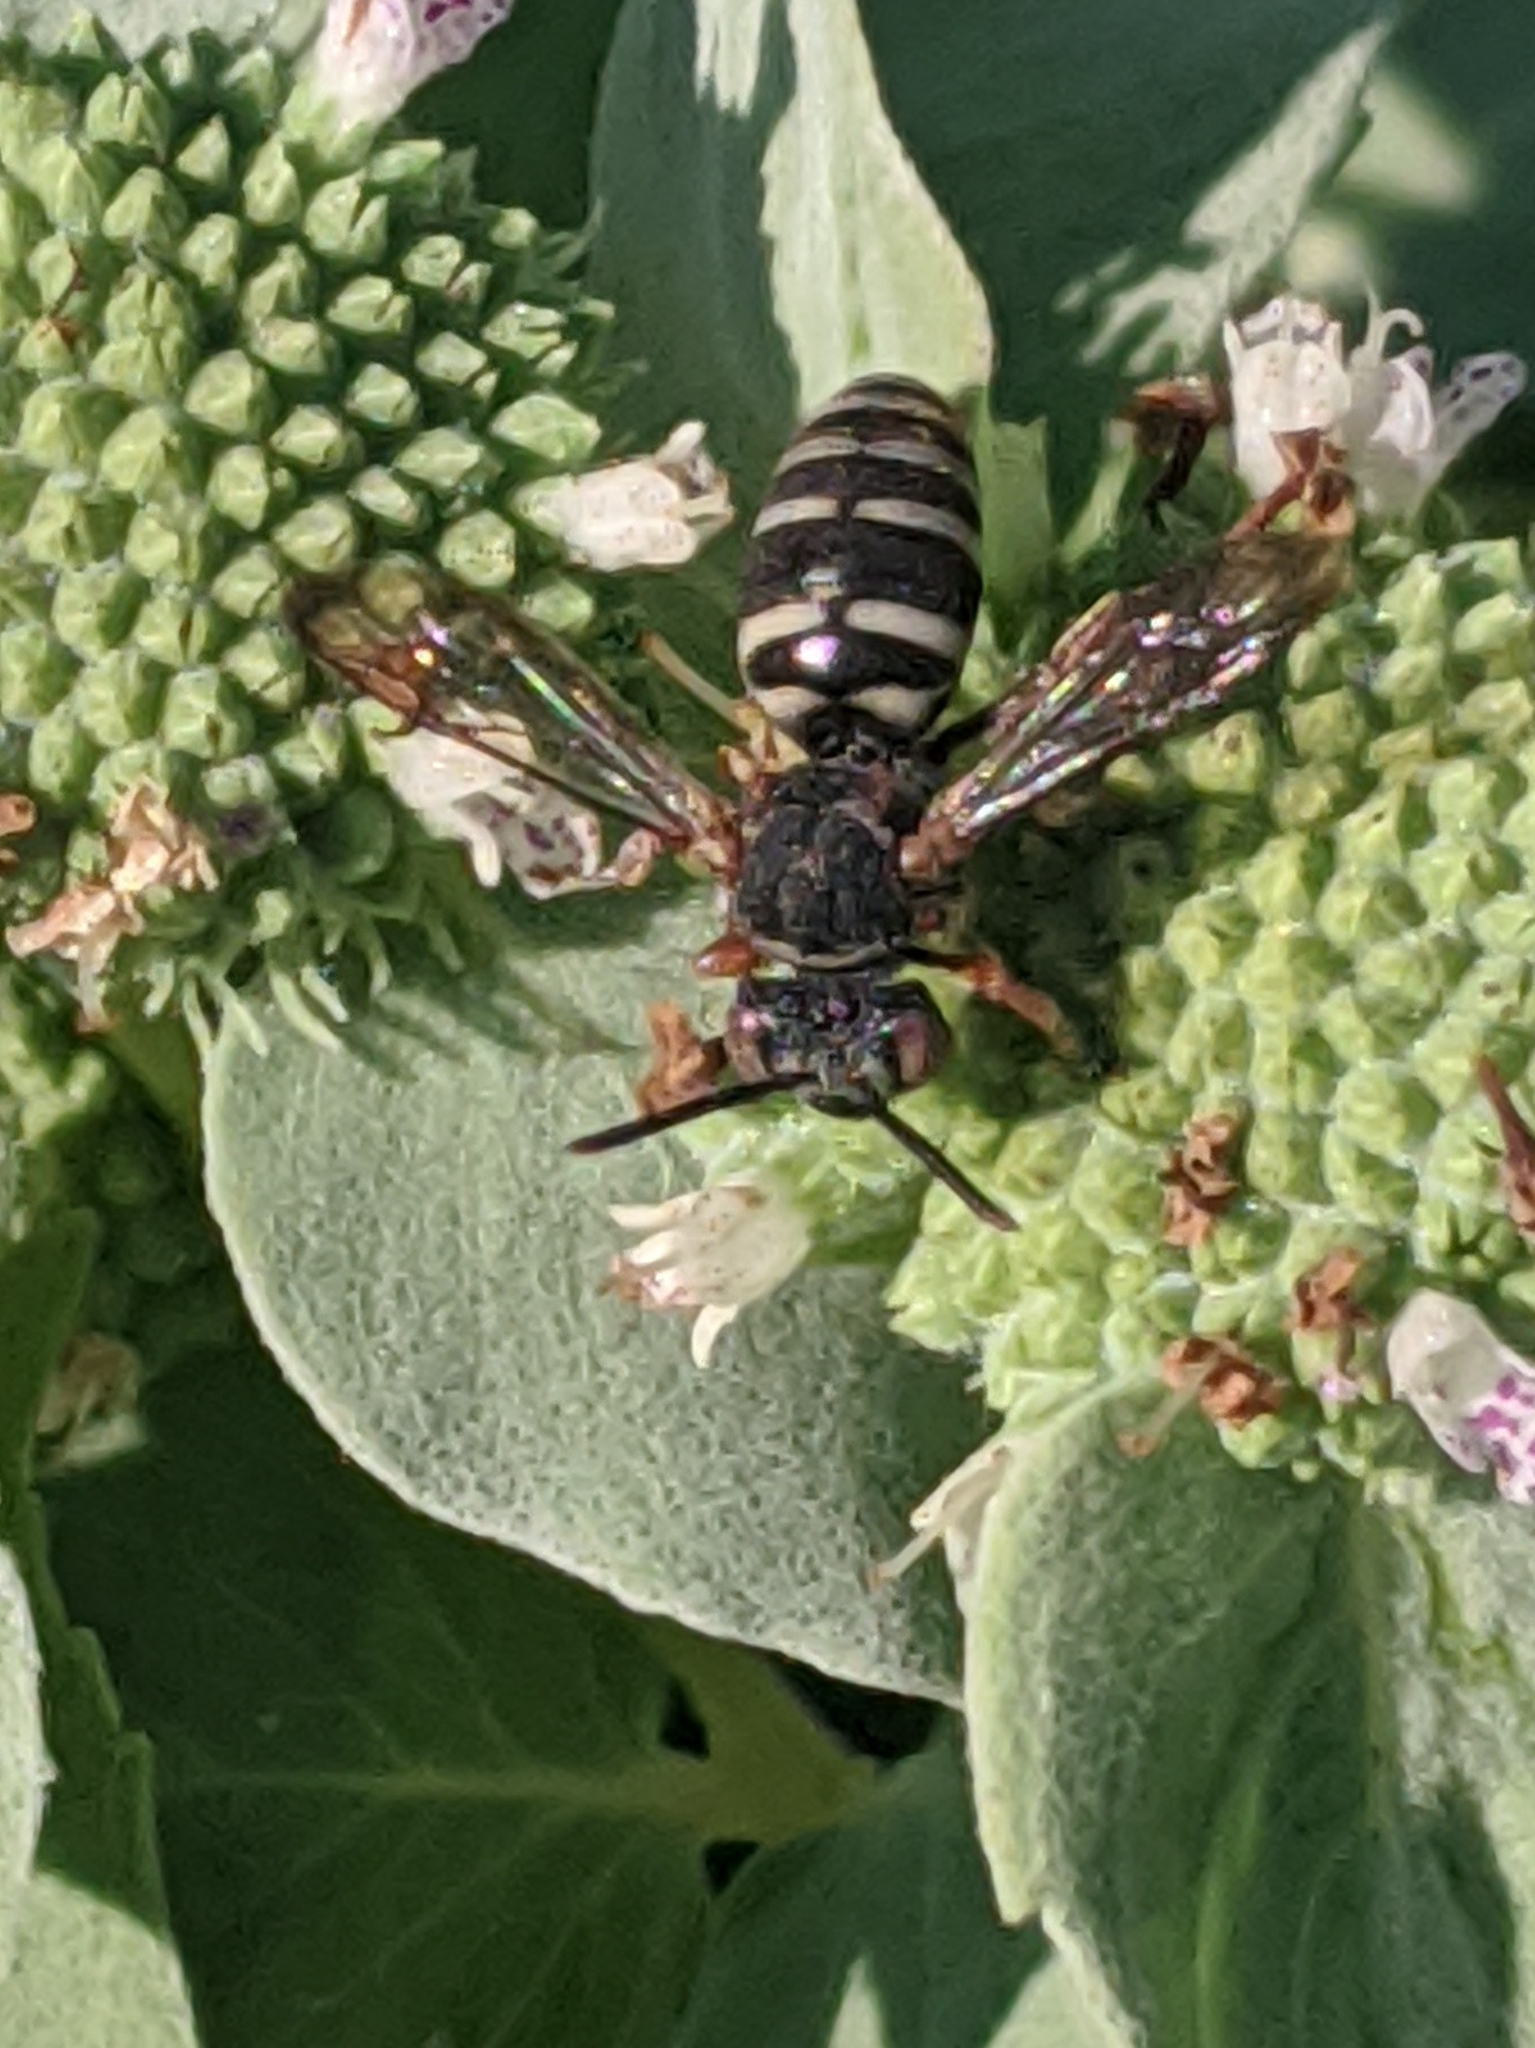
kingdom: Animalia
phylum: Arthropoda
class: Insecta
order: Hymenoptera
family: Apidae
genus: Epeolus
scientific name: Epeolus scutellaris
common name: Notch-backed cellophane-cuckoo bee
